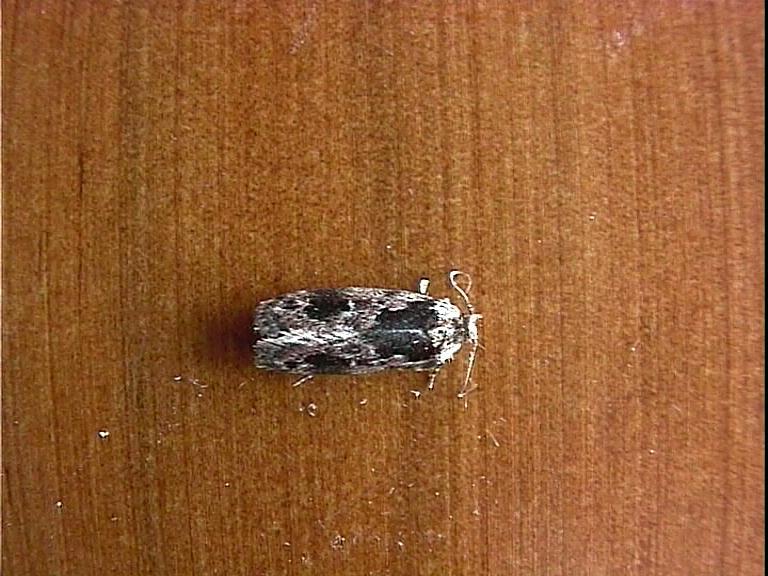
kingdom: Animalia
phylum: Arthropoda
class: Insecta
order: Lepidoptera
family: Oecophoridae
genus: Barea
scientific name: Barea consignatella
